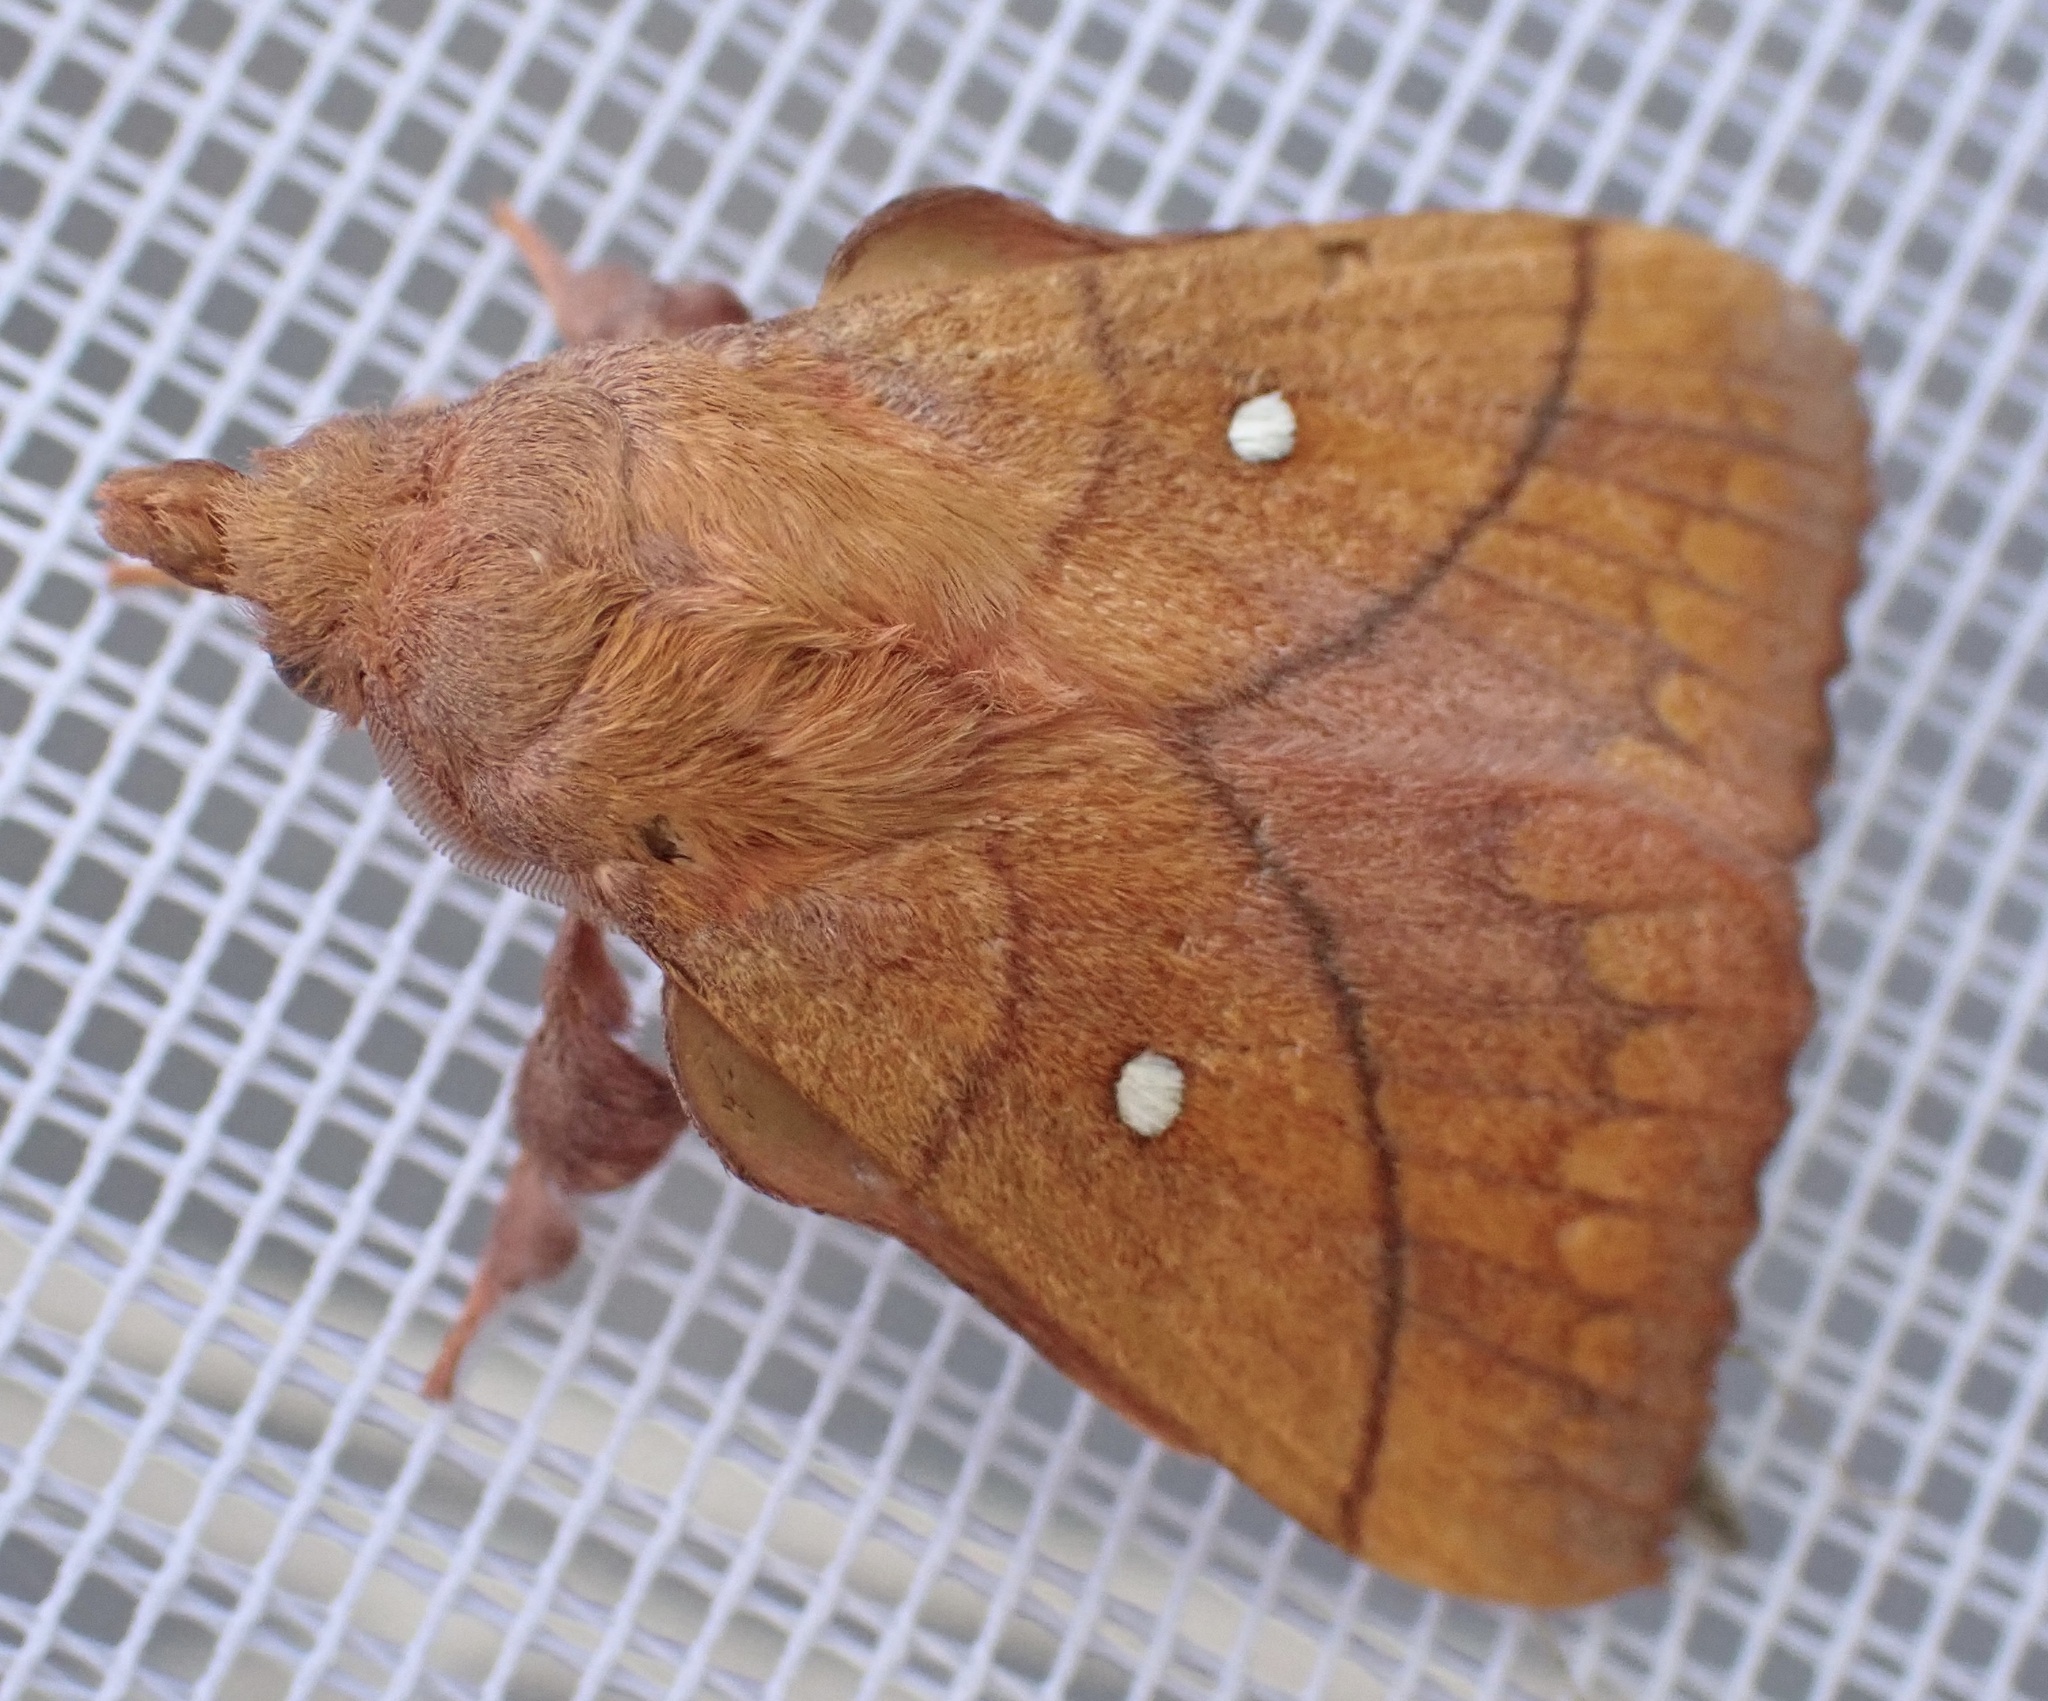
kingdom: Animalia
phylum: Arthropoda
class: Insecta
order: Lepidoptera
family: Lasiocampidae
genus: Odonestis
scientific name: Odonestis pruni
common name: Plum lappet
